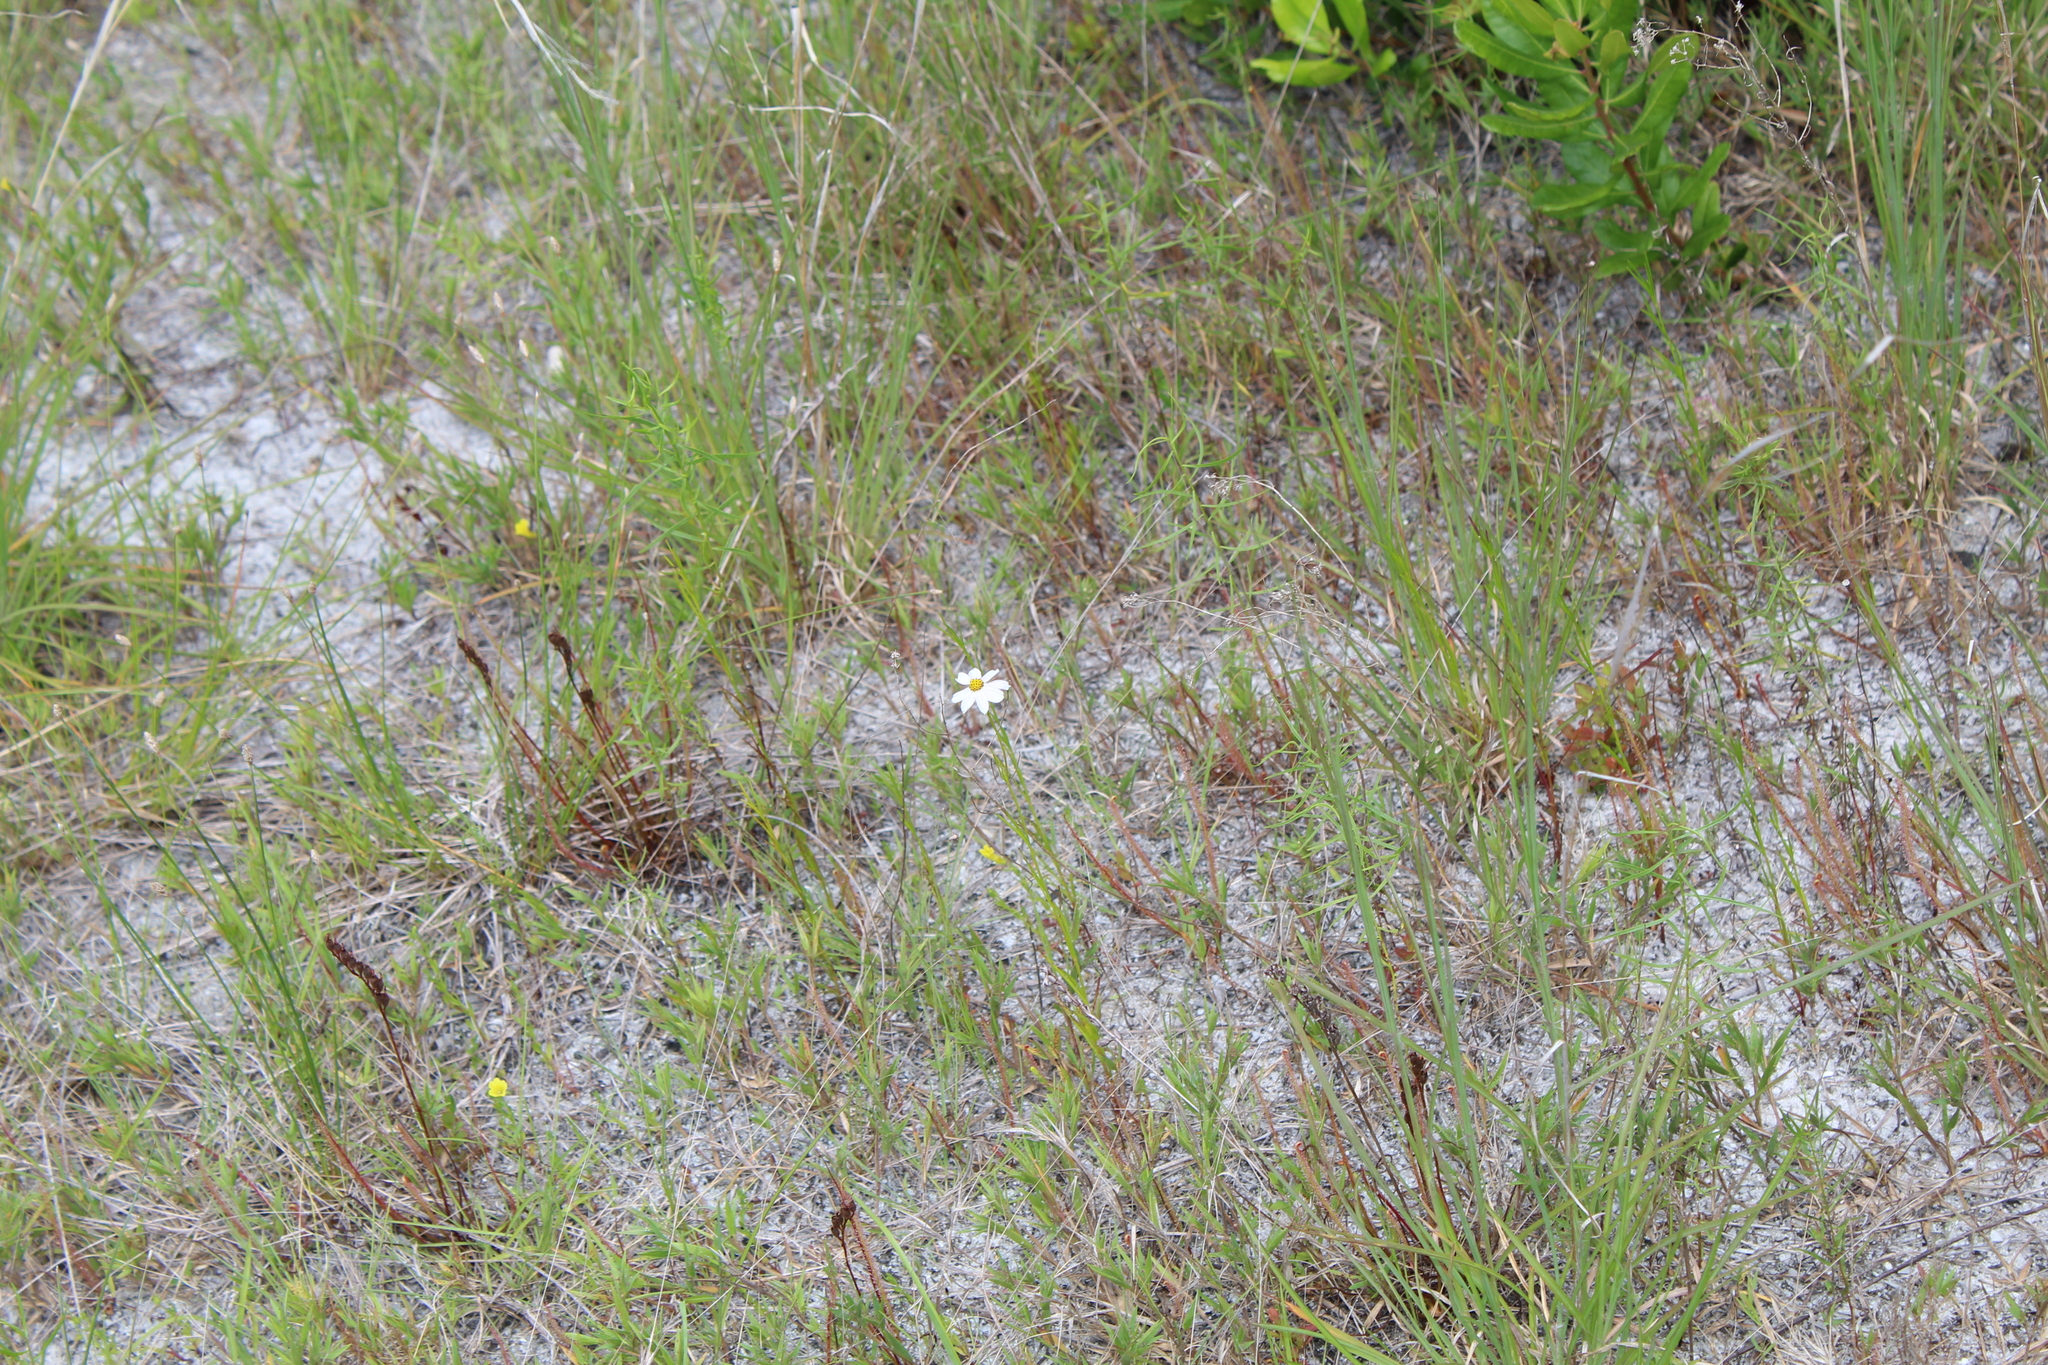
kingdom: Plantae
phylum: Tracheophyta
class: Magnoliopsida
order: Asterales
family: Asteraceae
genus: Coreopsis
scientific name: Coreopsis rosea
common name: Pink coreopsis
